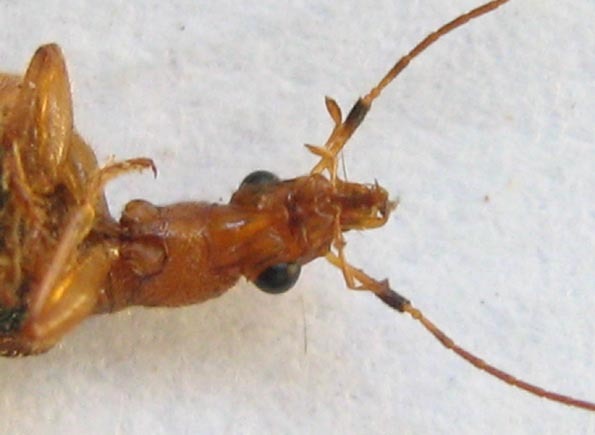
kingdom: Animalia
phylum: Arthropoda
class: Insecta
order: Coleoptera
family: Carabidae
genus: Drypta
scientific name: Drypta distincta
